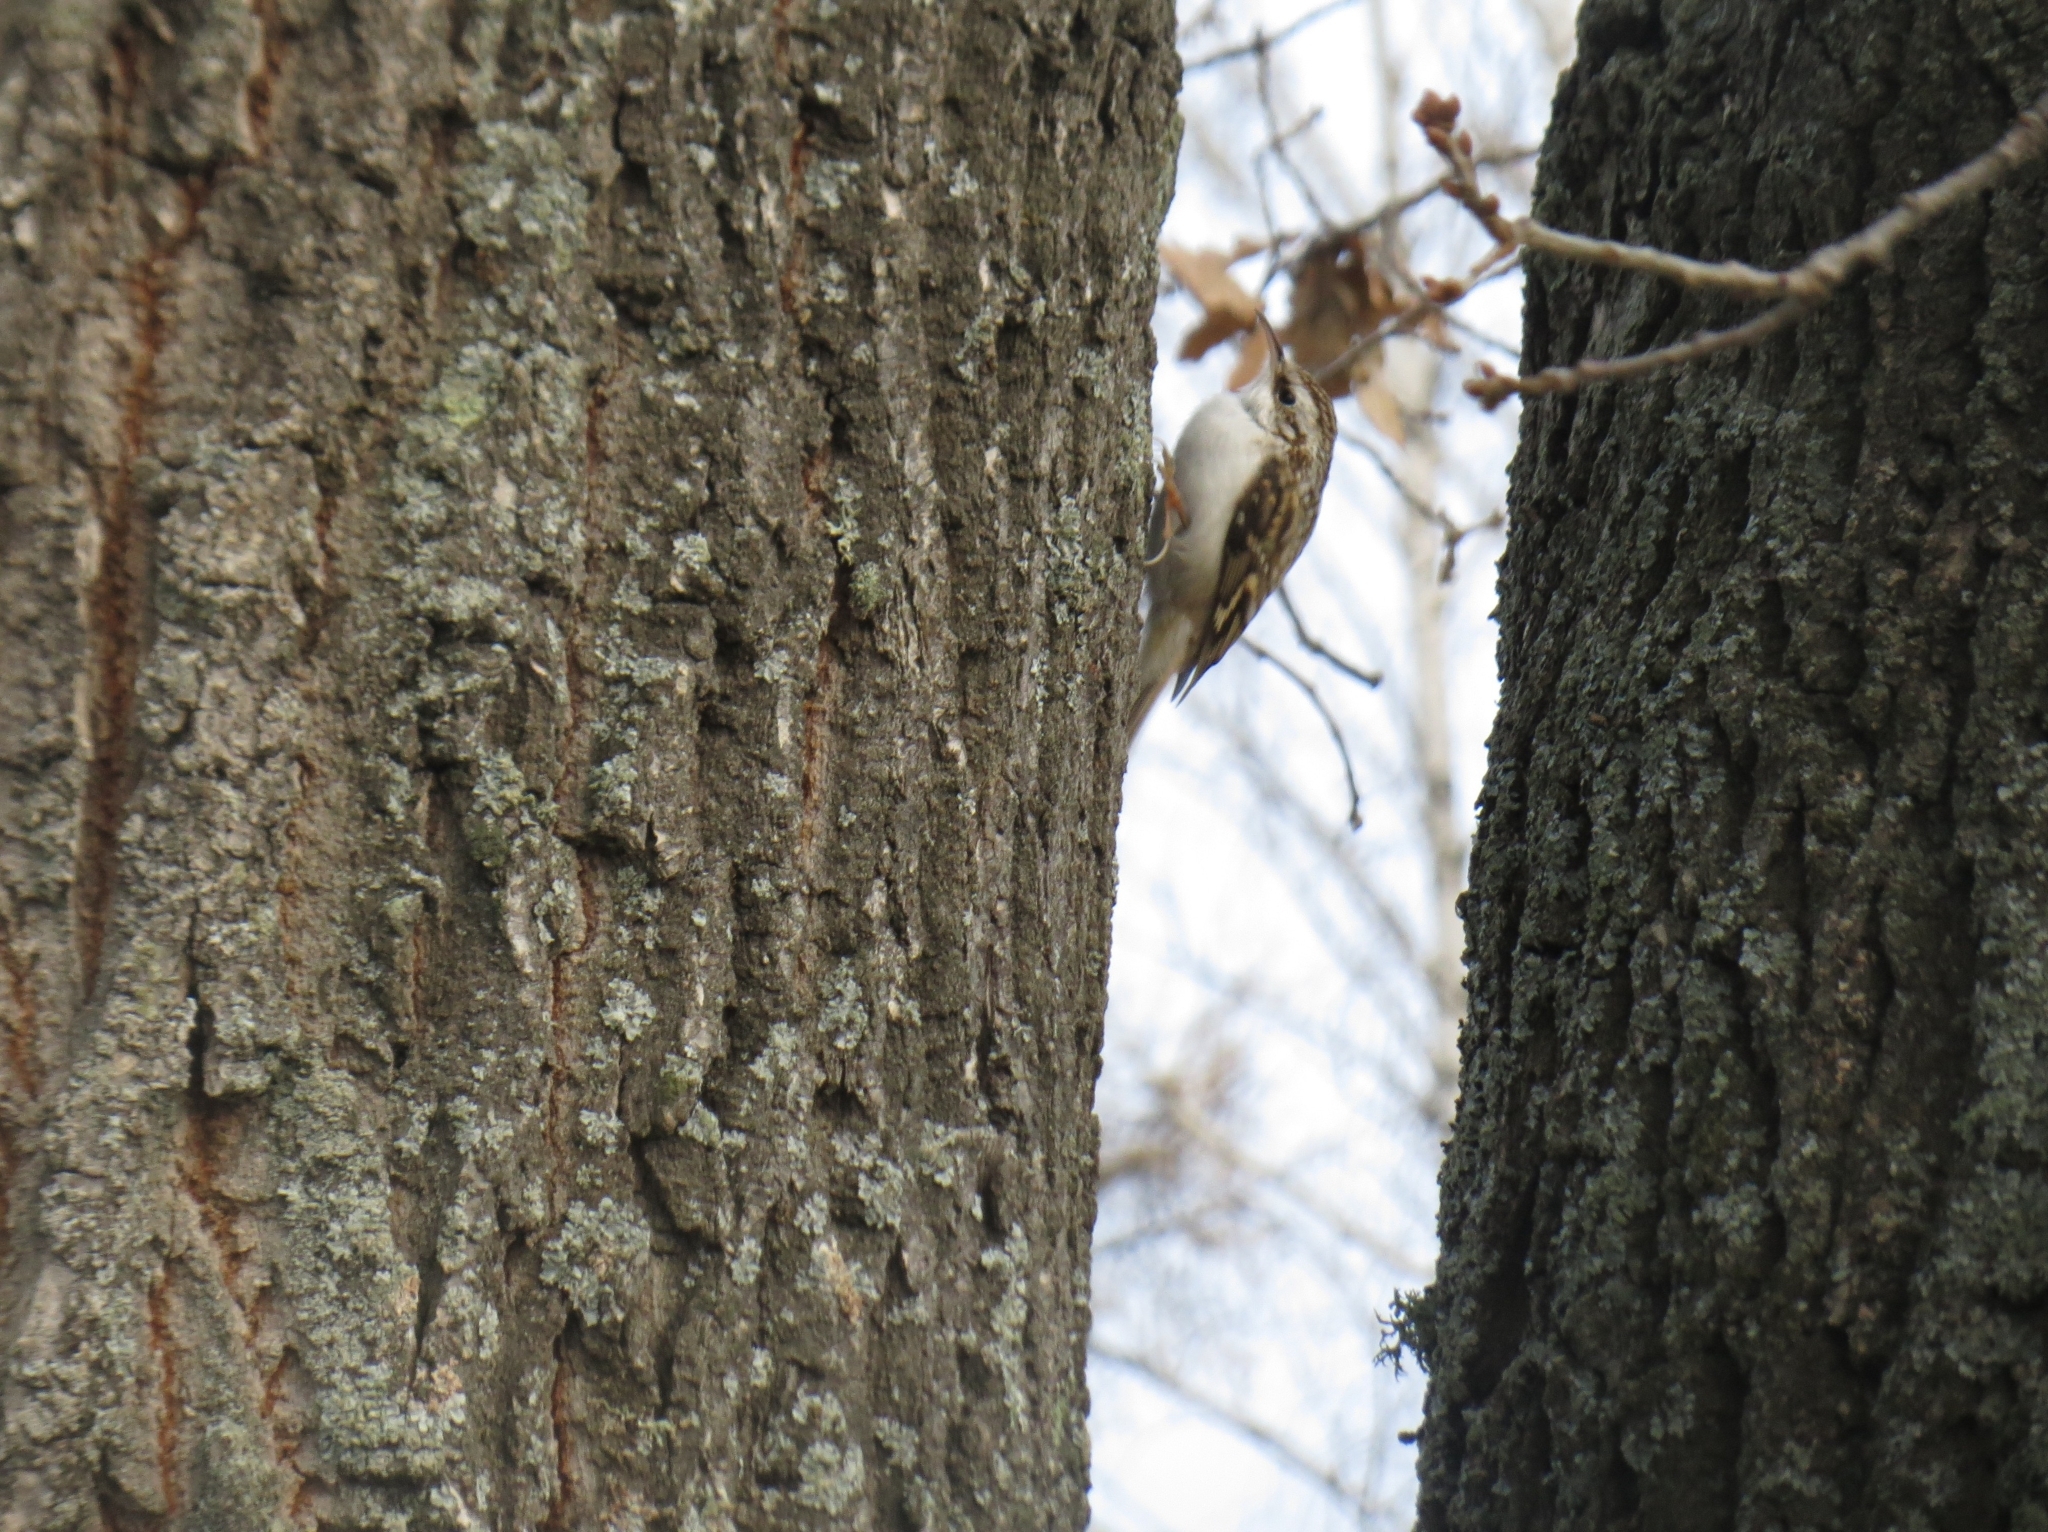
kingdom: Animalia
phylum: Chordata
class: Aves
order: Passeriformes
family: Certhiidae
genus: Certhia
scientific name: Certhia familiaris
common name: Eurasian treecreeper
